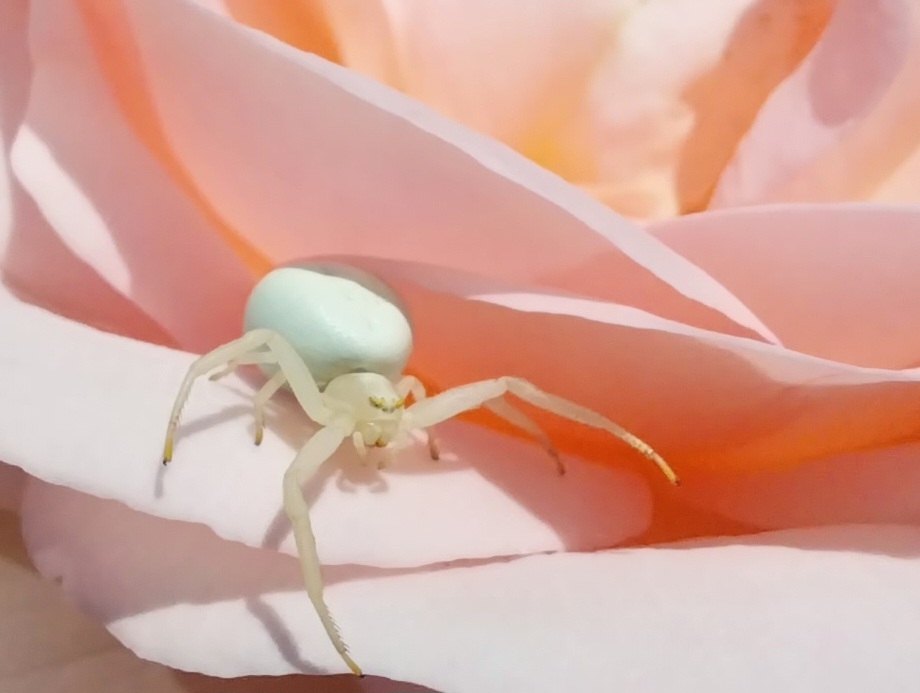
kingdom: Animalia
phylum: Arthropoda
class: Arachnida
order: Araneae
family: Thomisidae
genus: Misumena
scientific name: Misumena vatia
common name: Goldenrod crab spider
